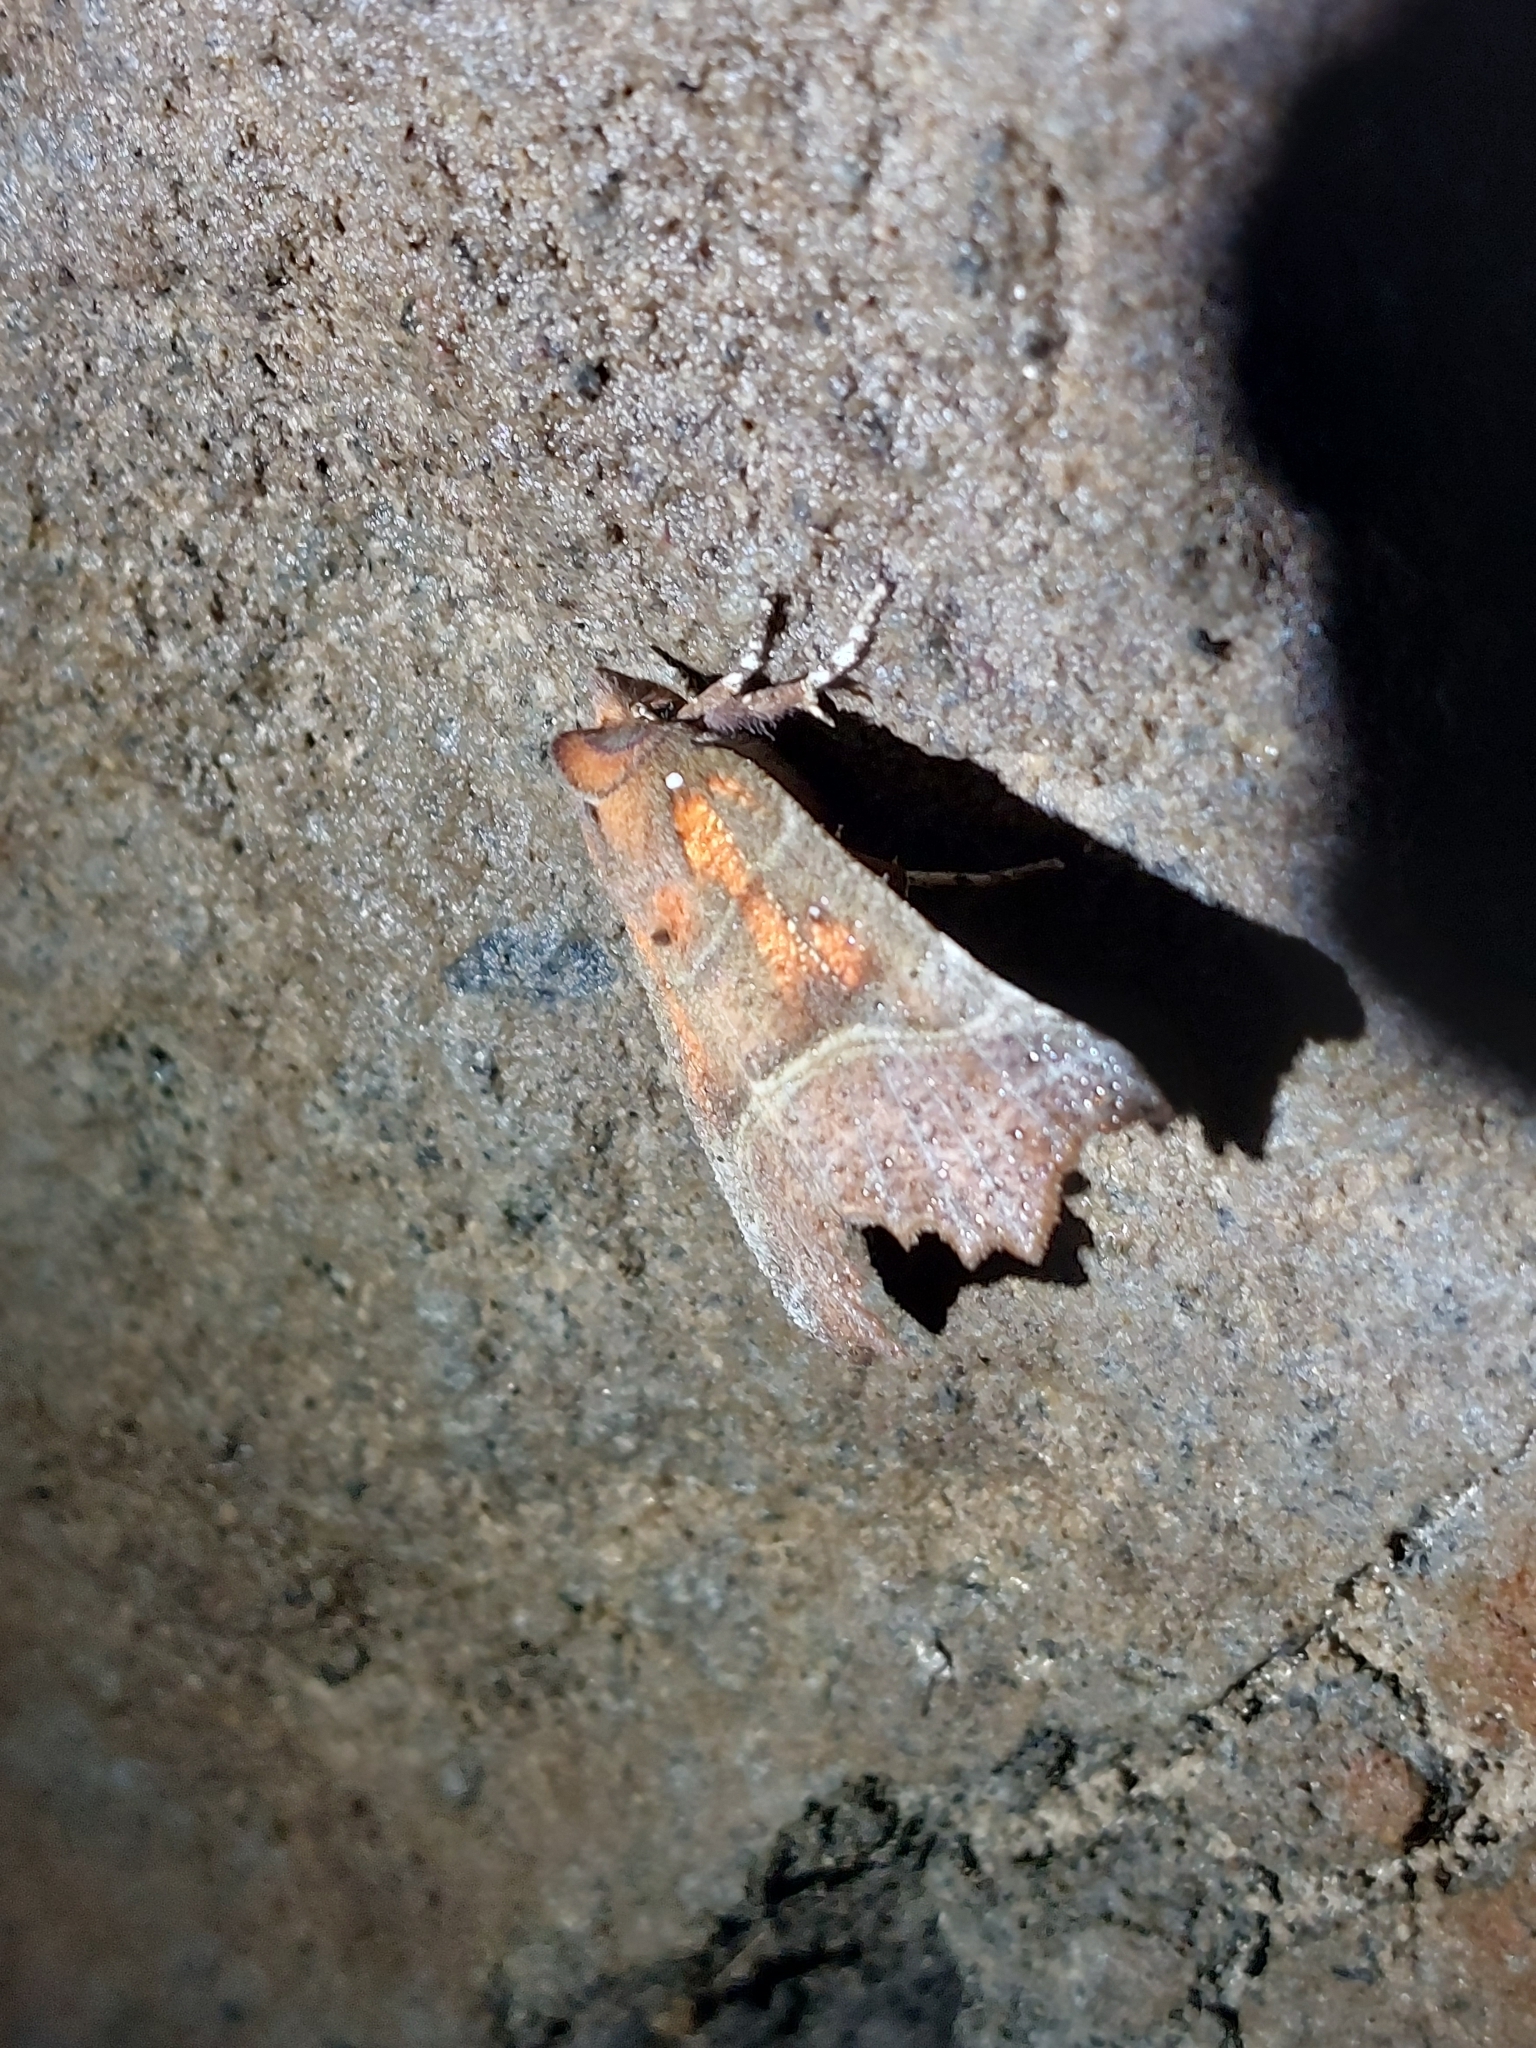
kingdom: Animalia
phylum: Arthropoda
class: Insecta
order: Lepidoptera
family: Erebidae
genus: Scoliopteryx
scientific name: Scoliopteryx libatrix
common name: Herald
